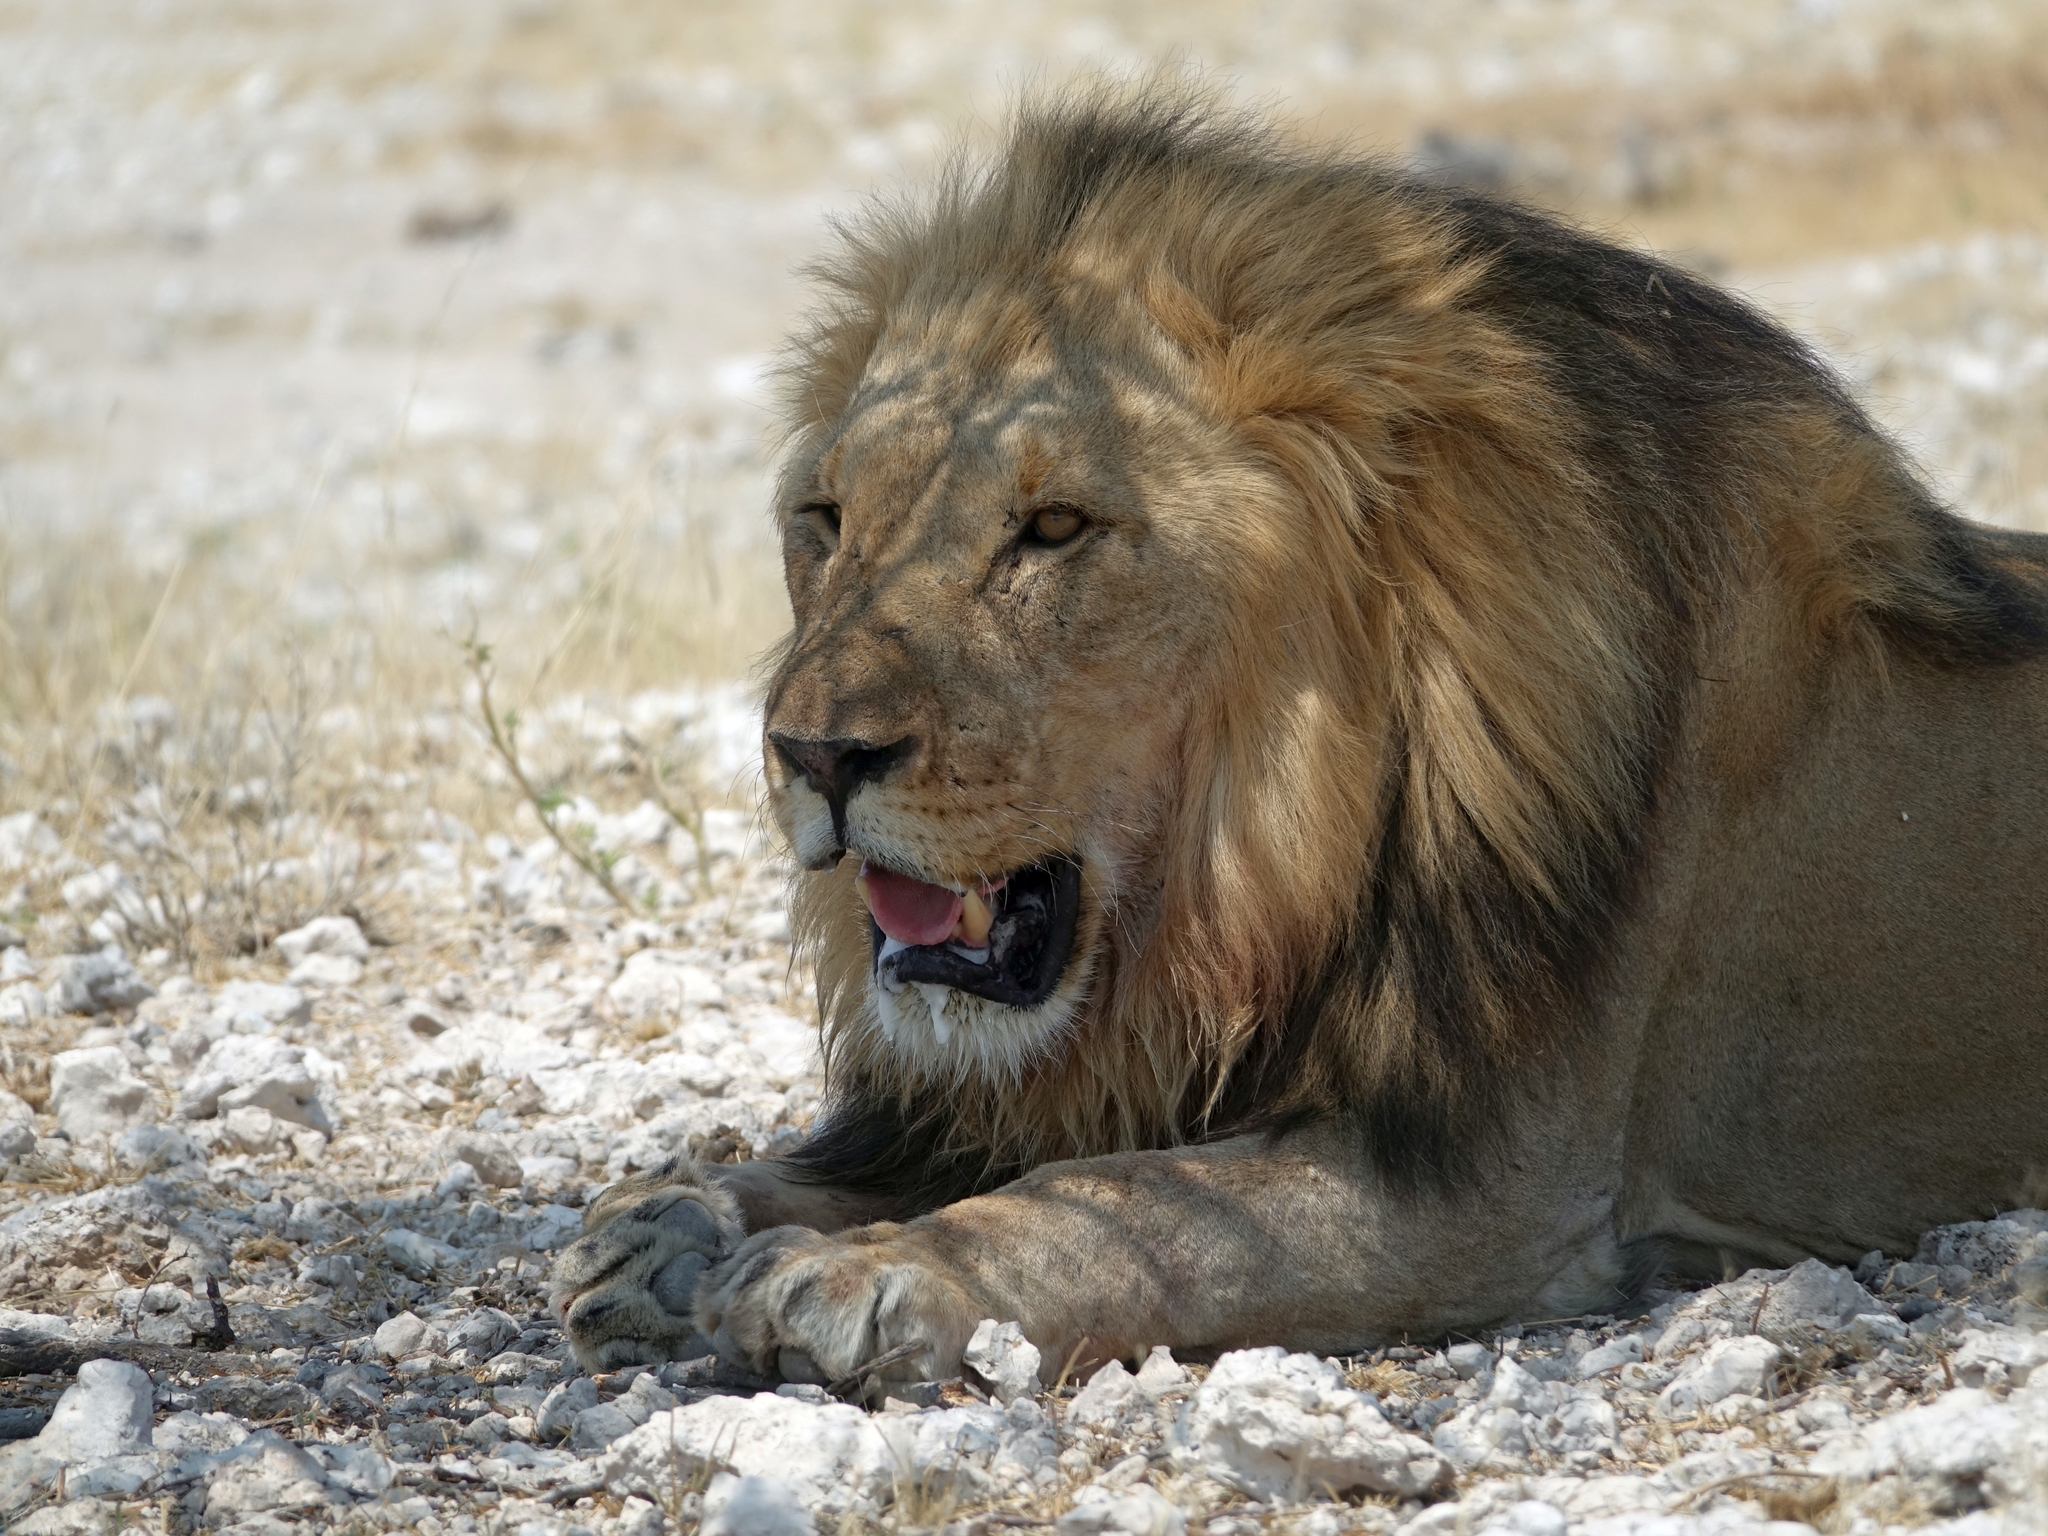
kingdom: Animalia
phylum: Chordata
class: Mammalia
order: Carnivora
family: Felidae
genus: Panthera
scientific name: Panthera leo
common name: Lion
